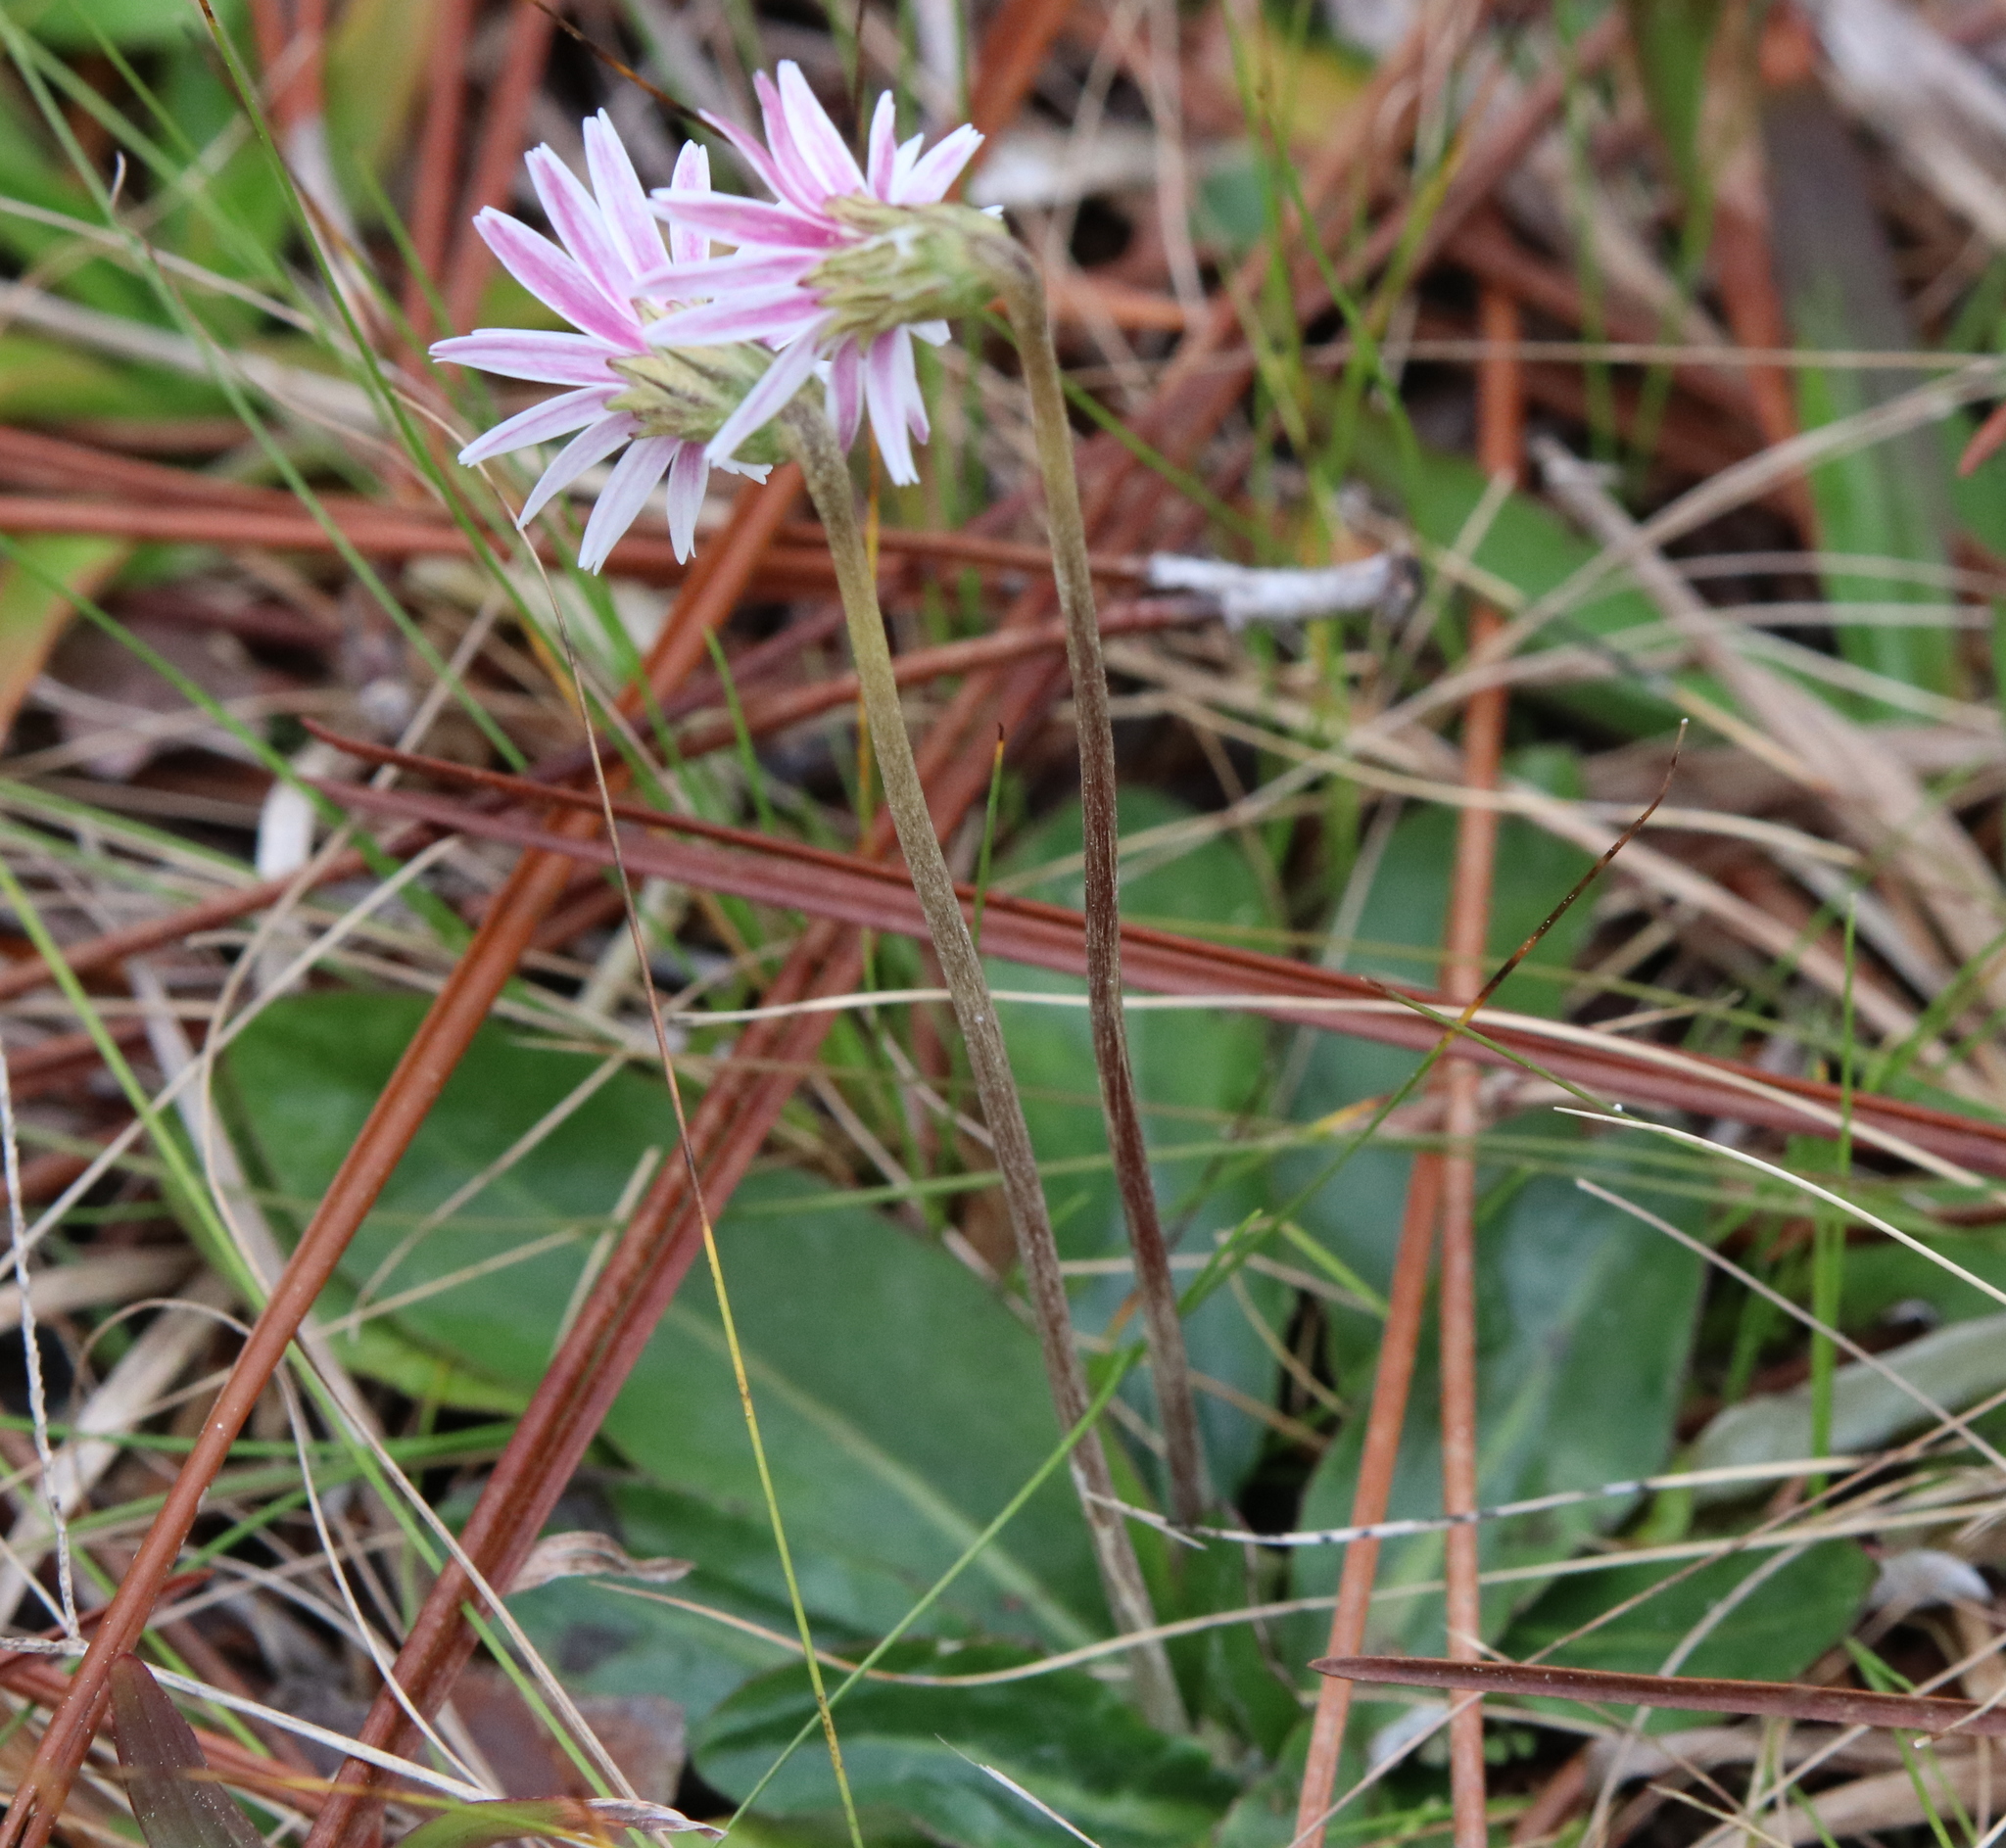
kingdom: Plantae
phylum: Tracheophyta
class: Magnoliopsida
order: Asterales
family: Asteraceae
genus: Chaptalia
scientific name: Chaptalia tomentosa
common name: Woolly sunbonnet
